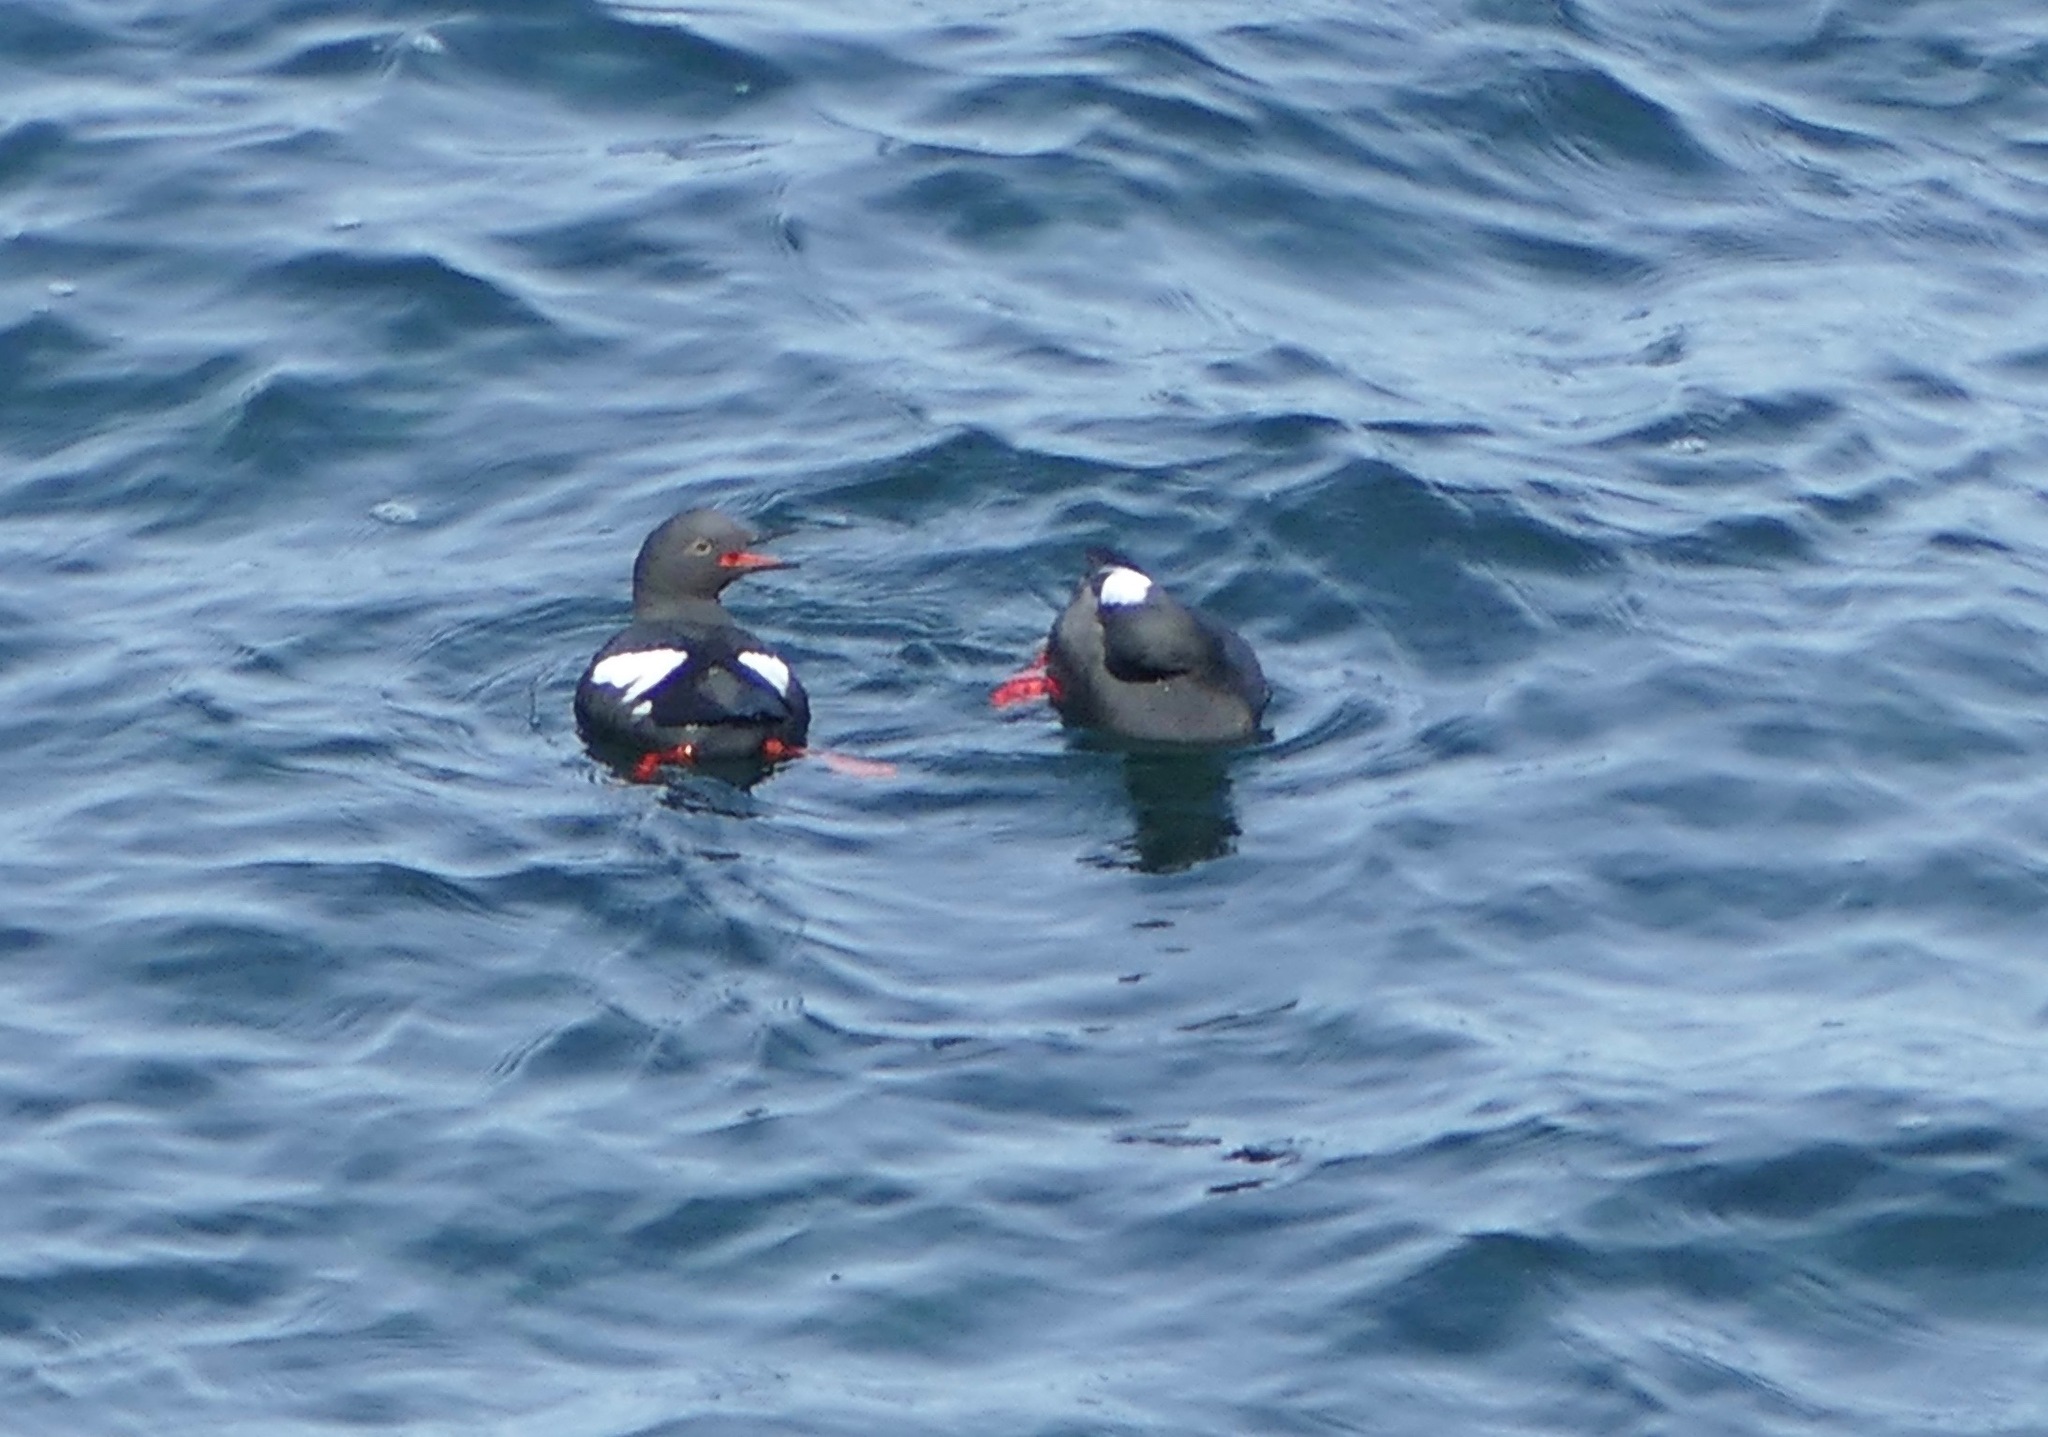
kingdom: Animalia
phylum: Chordata
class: Aves
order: Charadriiformes
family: Alcidae
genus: Cepphus
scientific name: Cepphus columba
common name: Pigeon guillemot
